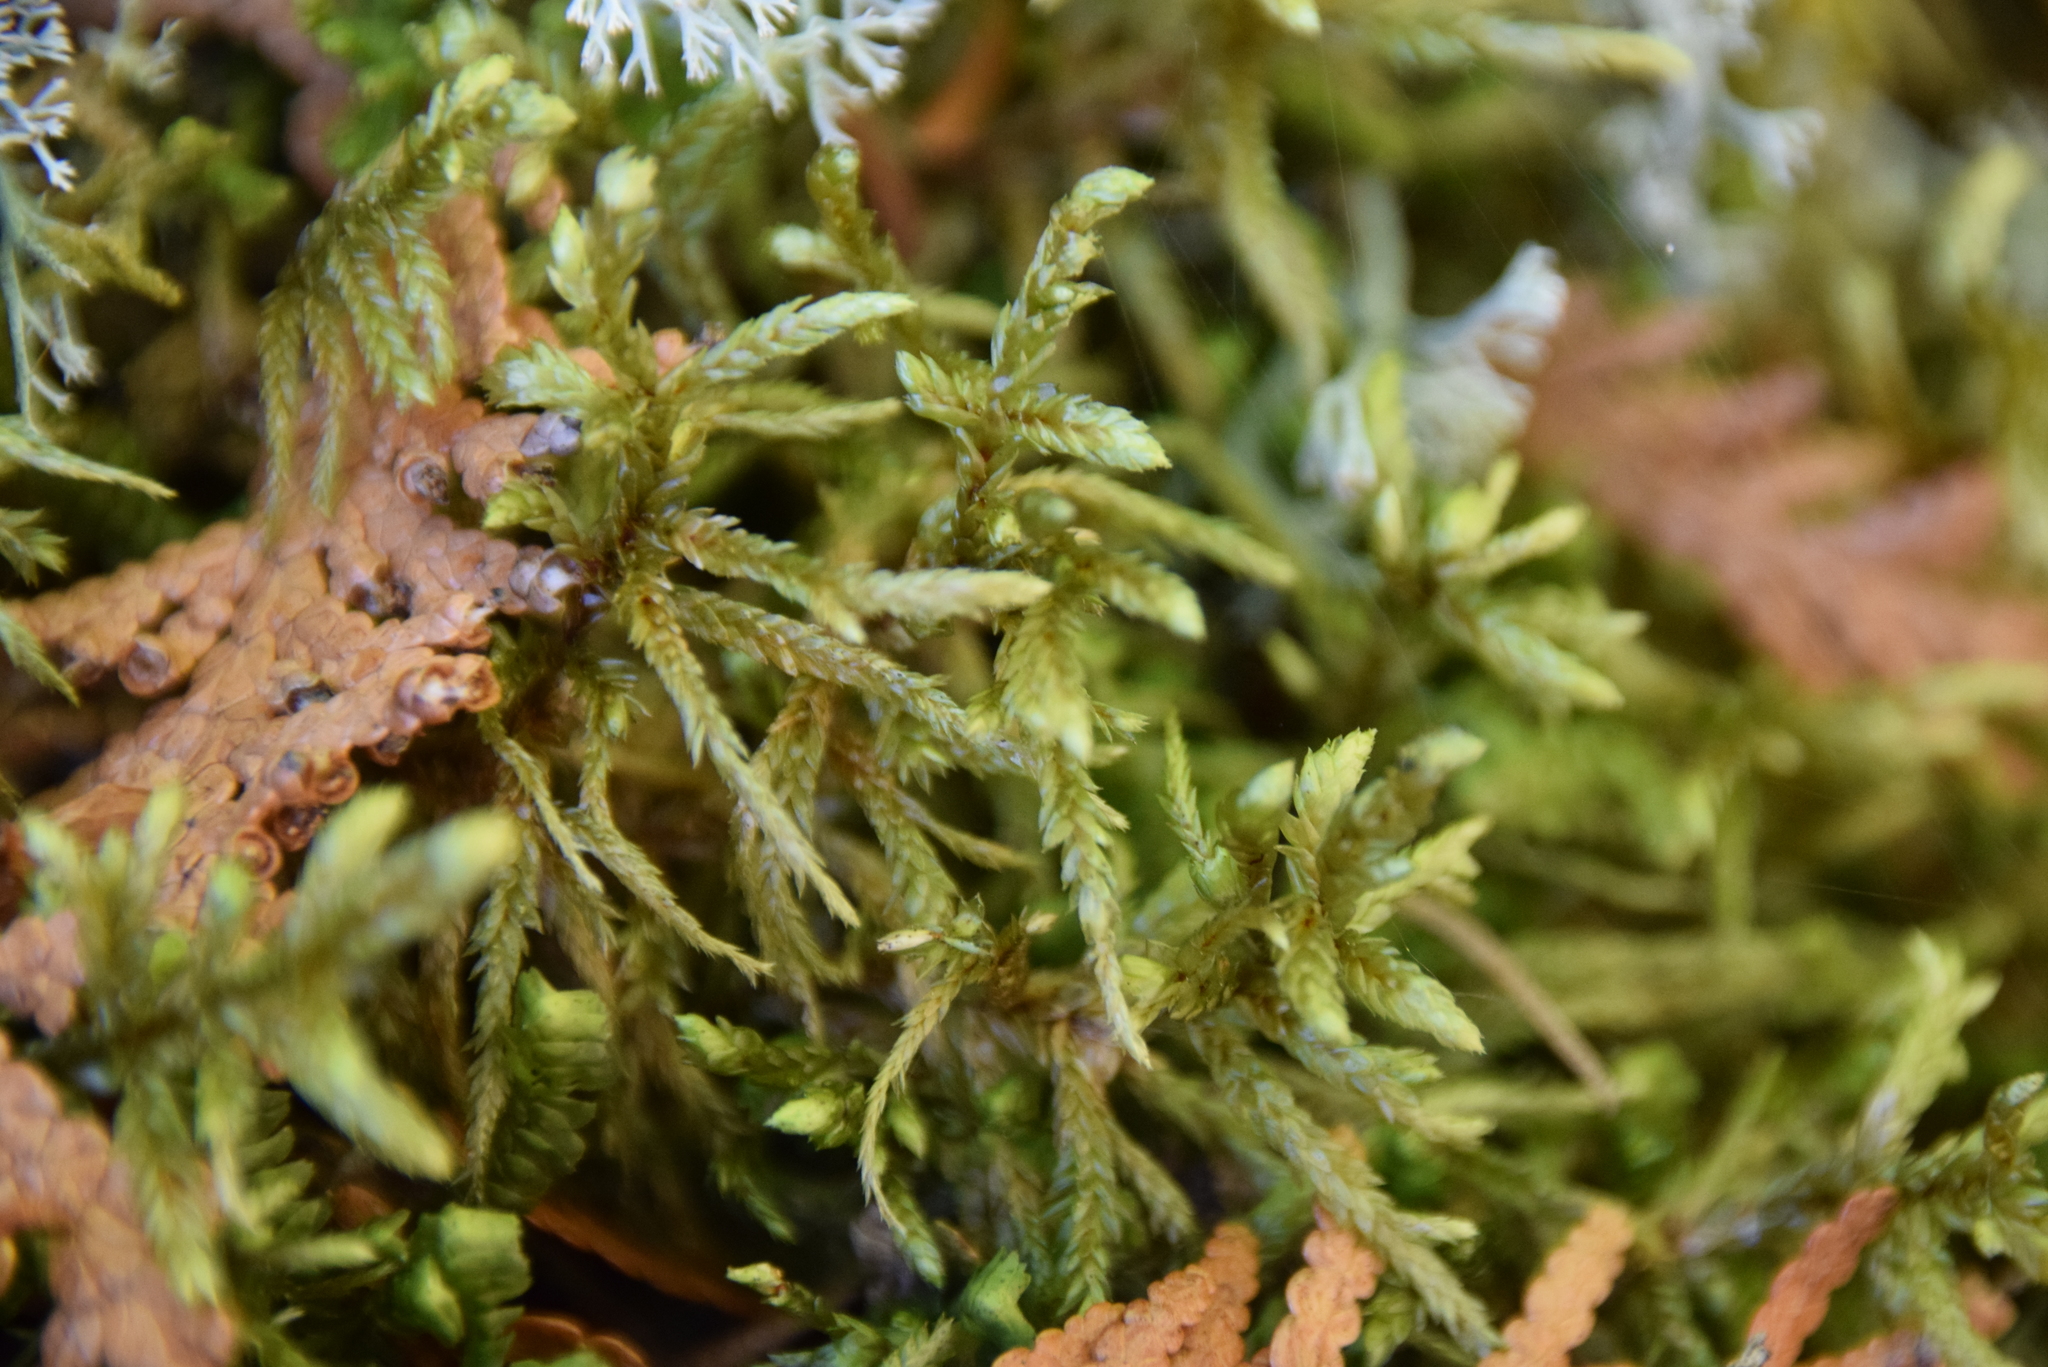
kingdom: Plantae
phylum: Bryophyta
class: Bryopsida
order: Hypnales
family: Hylocomiaceae
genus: Pleurozium
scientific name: Pleurozium schreberi
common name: Red-stemmed feather moss
